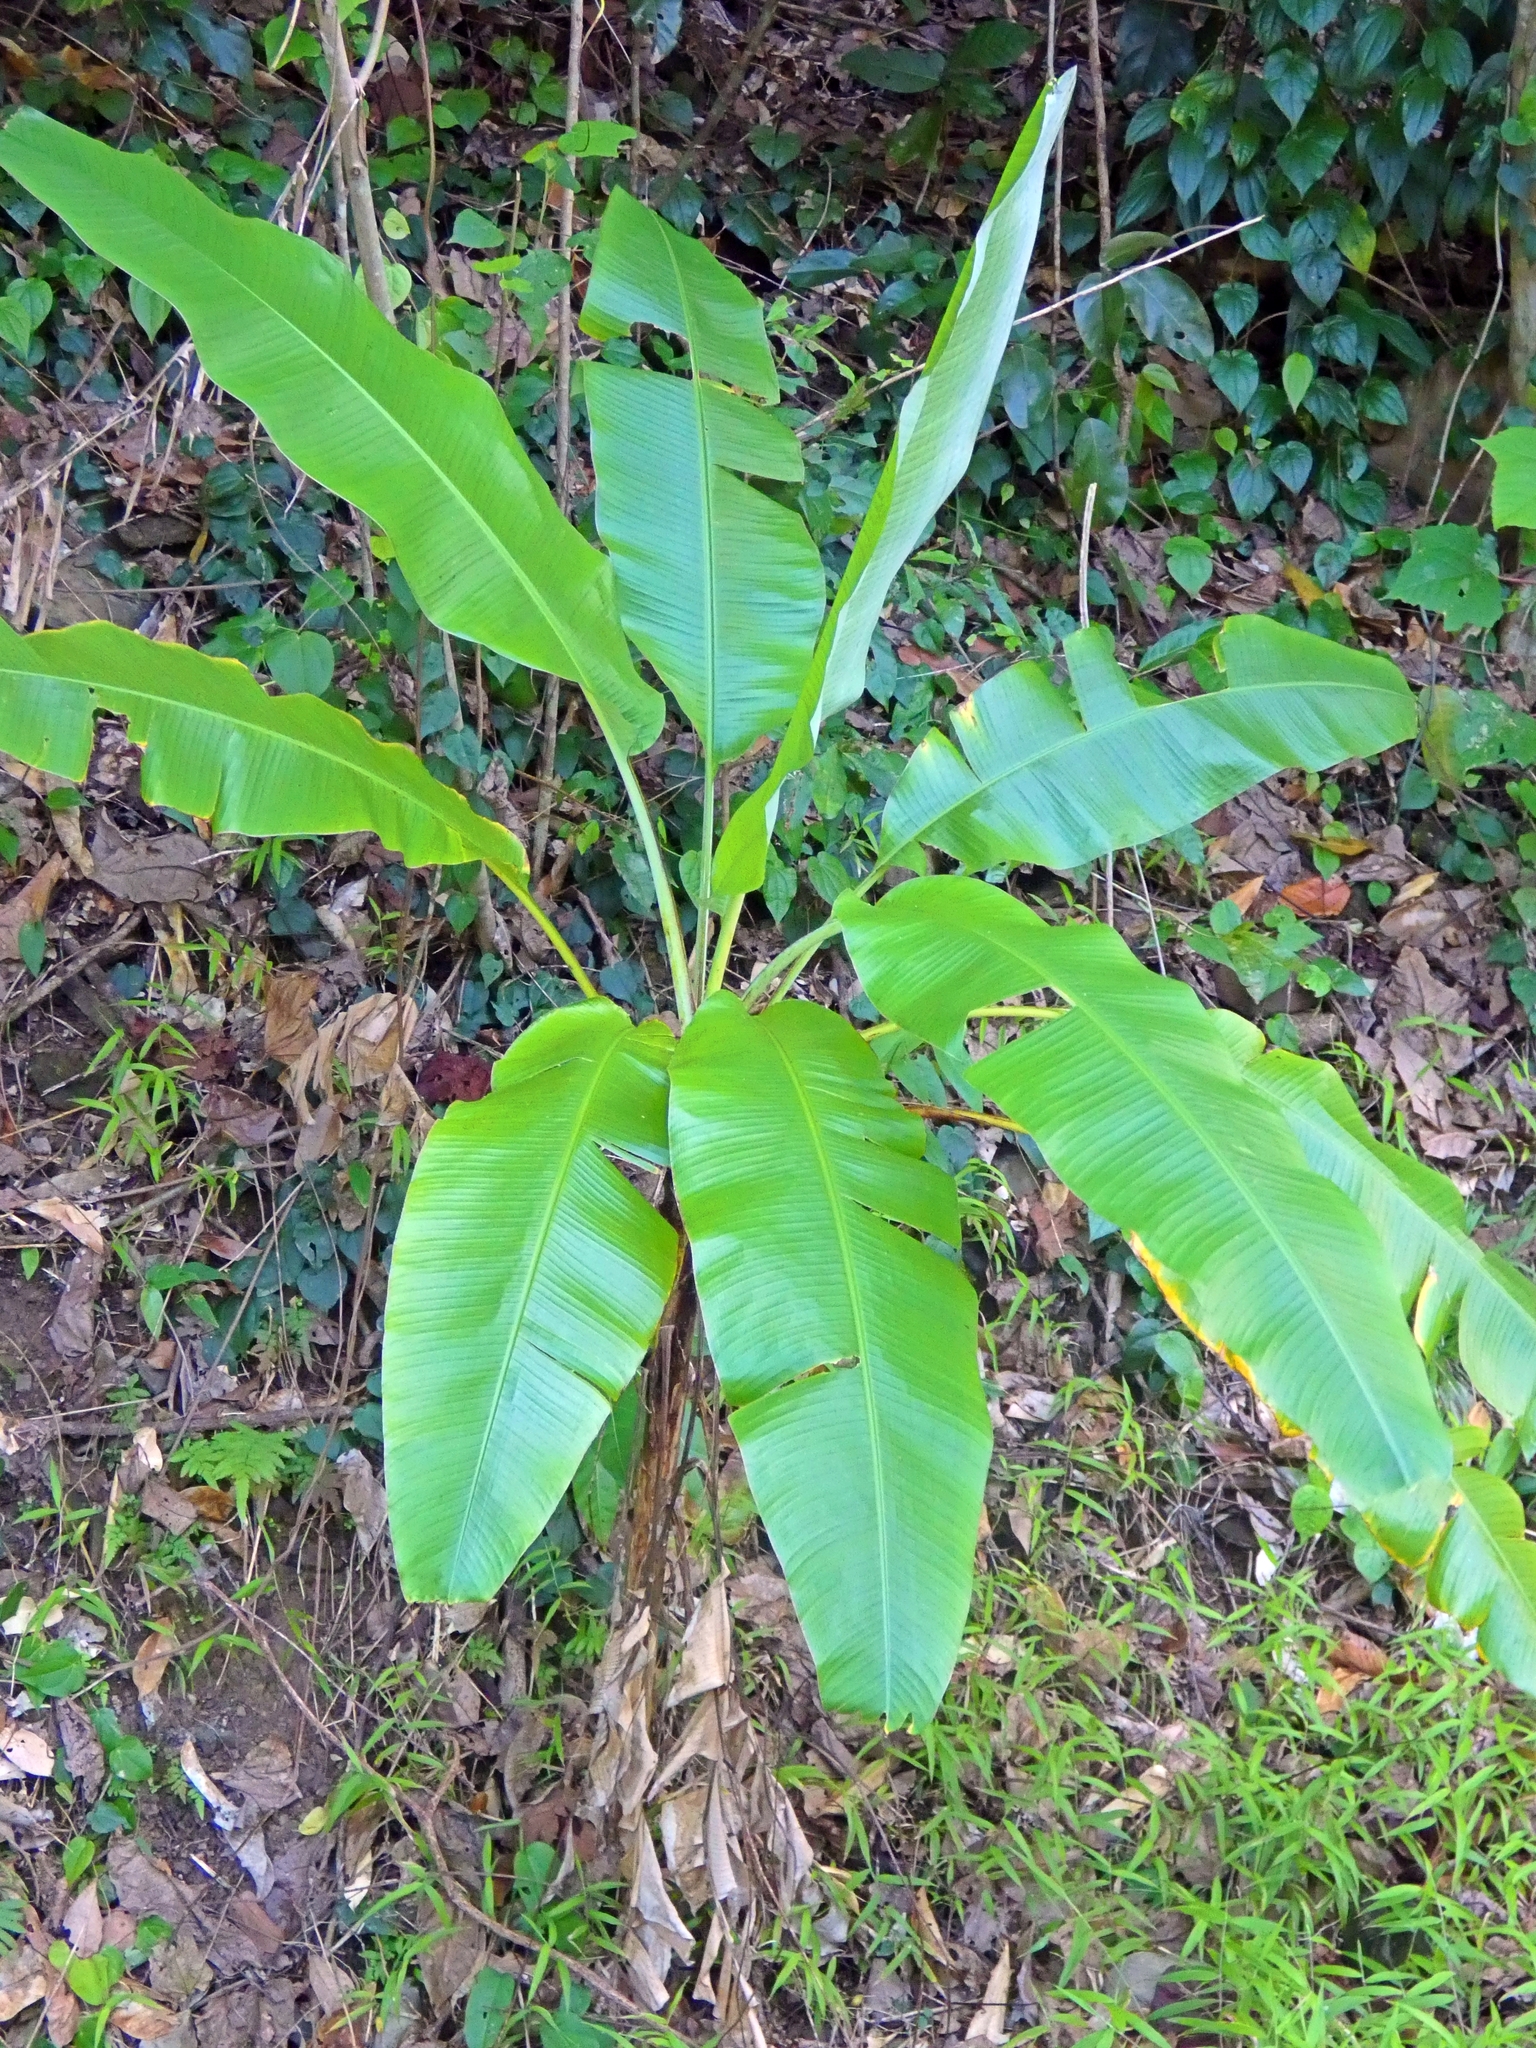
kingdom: Plantae
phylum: Tracheophyta
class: Liliopsida
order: Zingiberales
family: Musaceae
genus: Musa
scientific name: Musa banksii
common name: Maroon-stemmed banana
